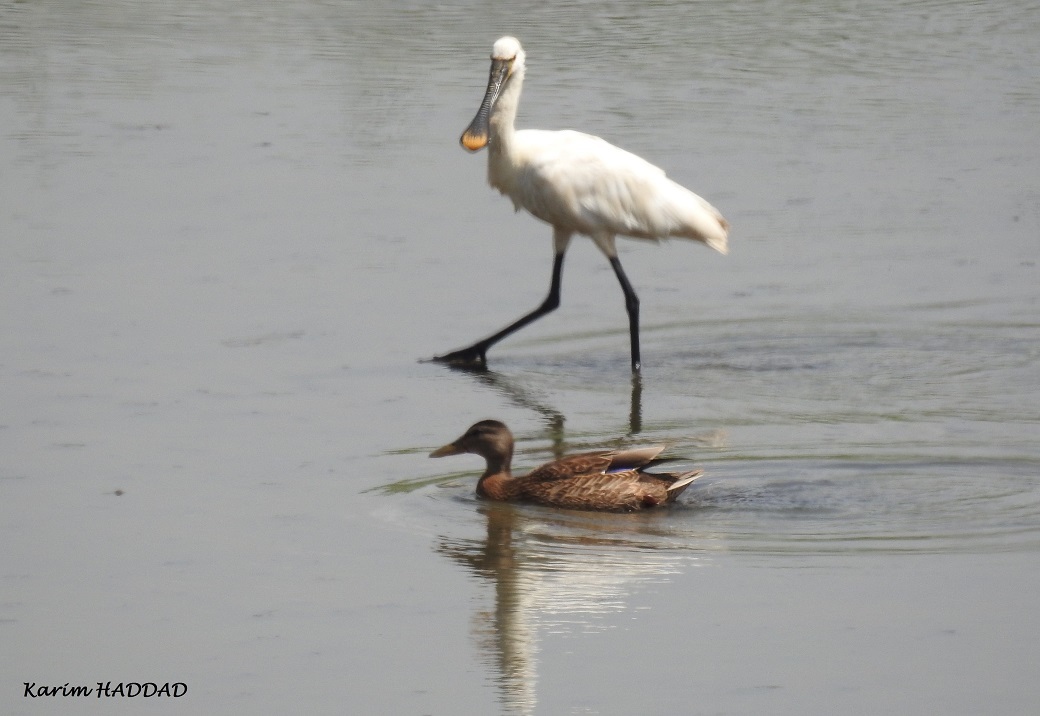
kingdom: Animalia
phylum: Chordata
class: Aves
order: Pelecaniformes
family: Threskiornithidae
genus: Platalea
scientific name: Platalea leucorodia
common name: Eurasian spoonbill
